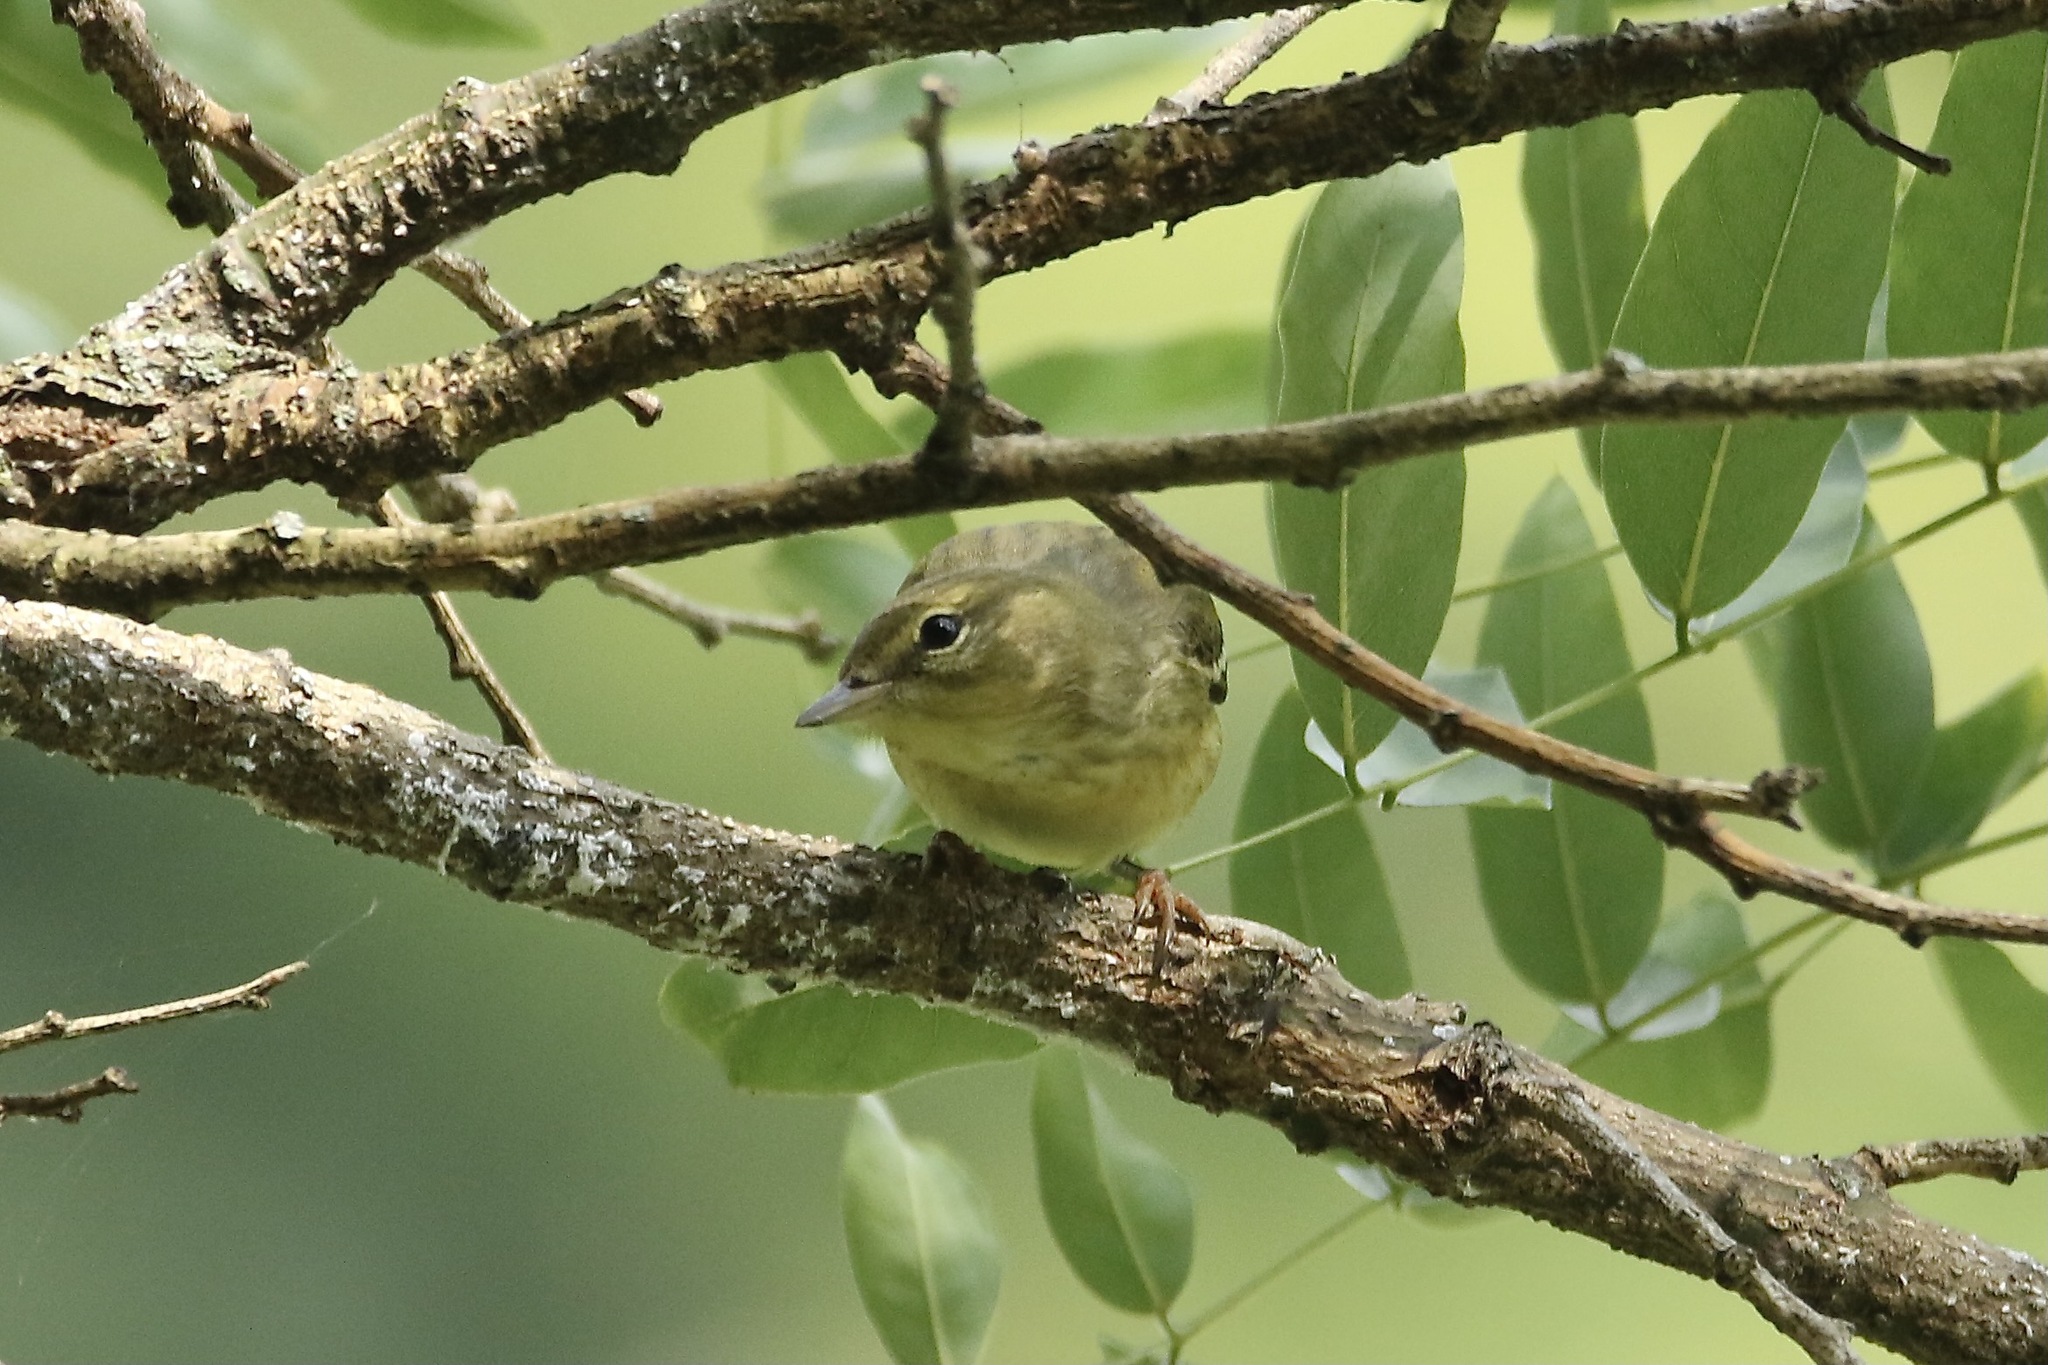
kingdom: Animalia
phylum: Chordata
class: Aves
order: Passeriformes
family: Parulidae
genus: Setophaga
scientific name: Setophaga striata
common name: Blackpoll warbler
